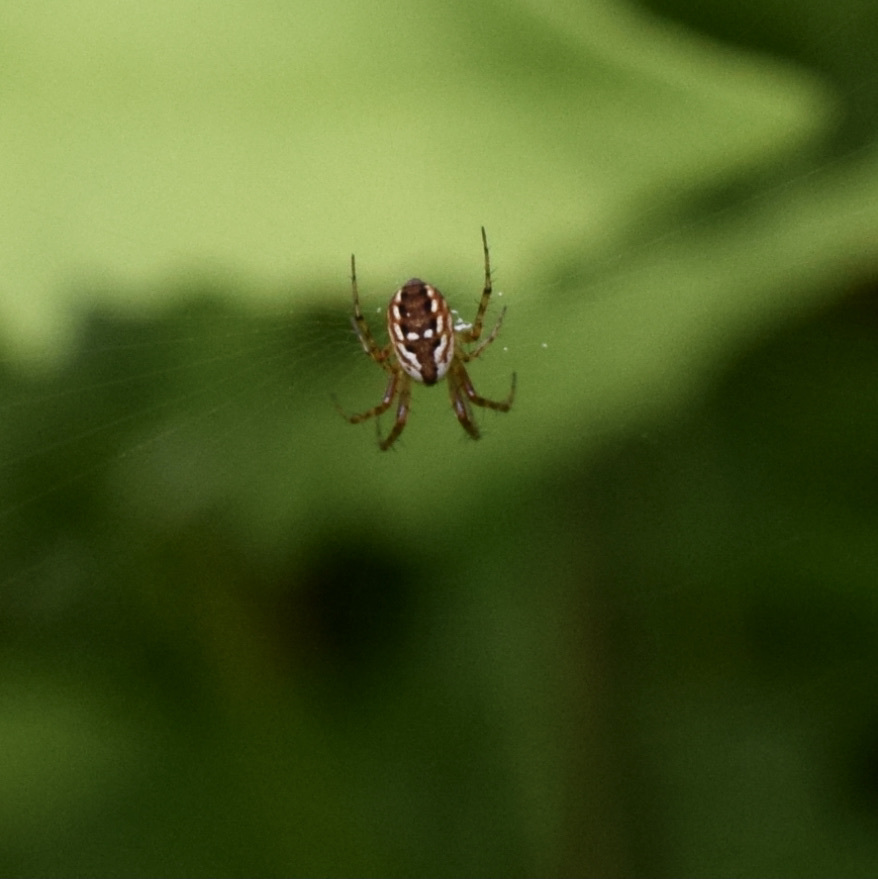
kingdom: Animalia
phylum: Arthropoda
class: Arachnida
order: Araneae
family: Araneidae
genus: Mangora
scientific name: Mangora placida
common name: Tuft-legged orbweaver
